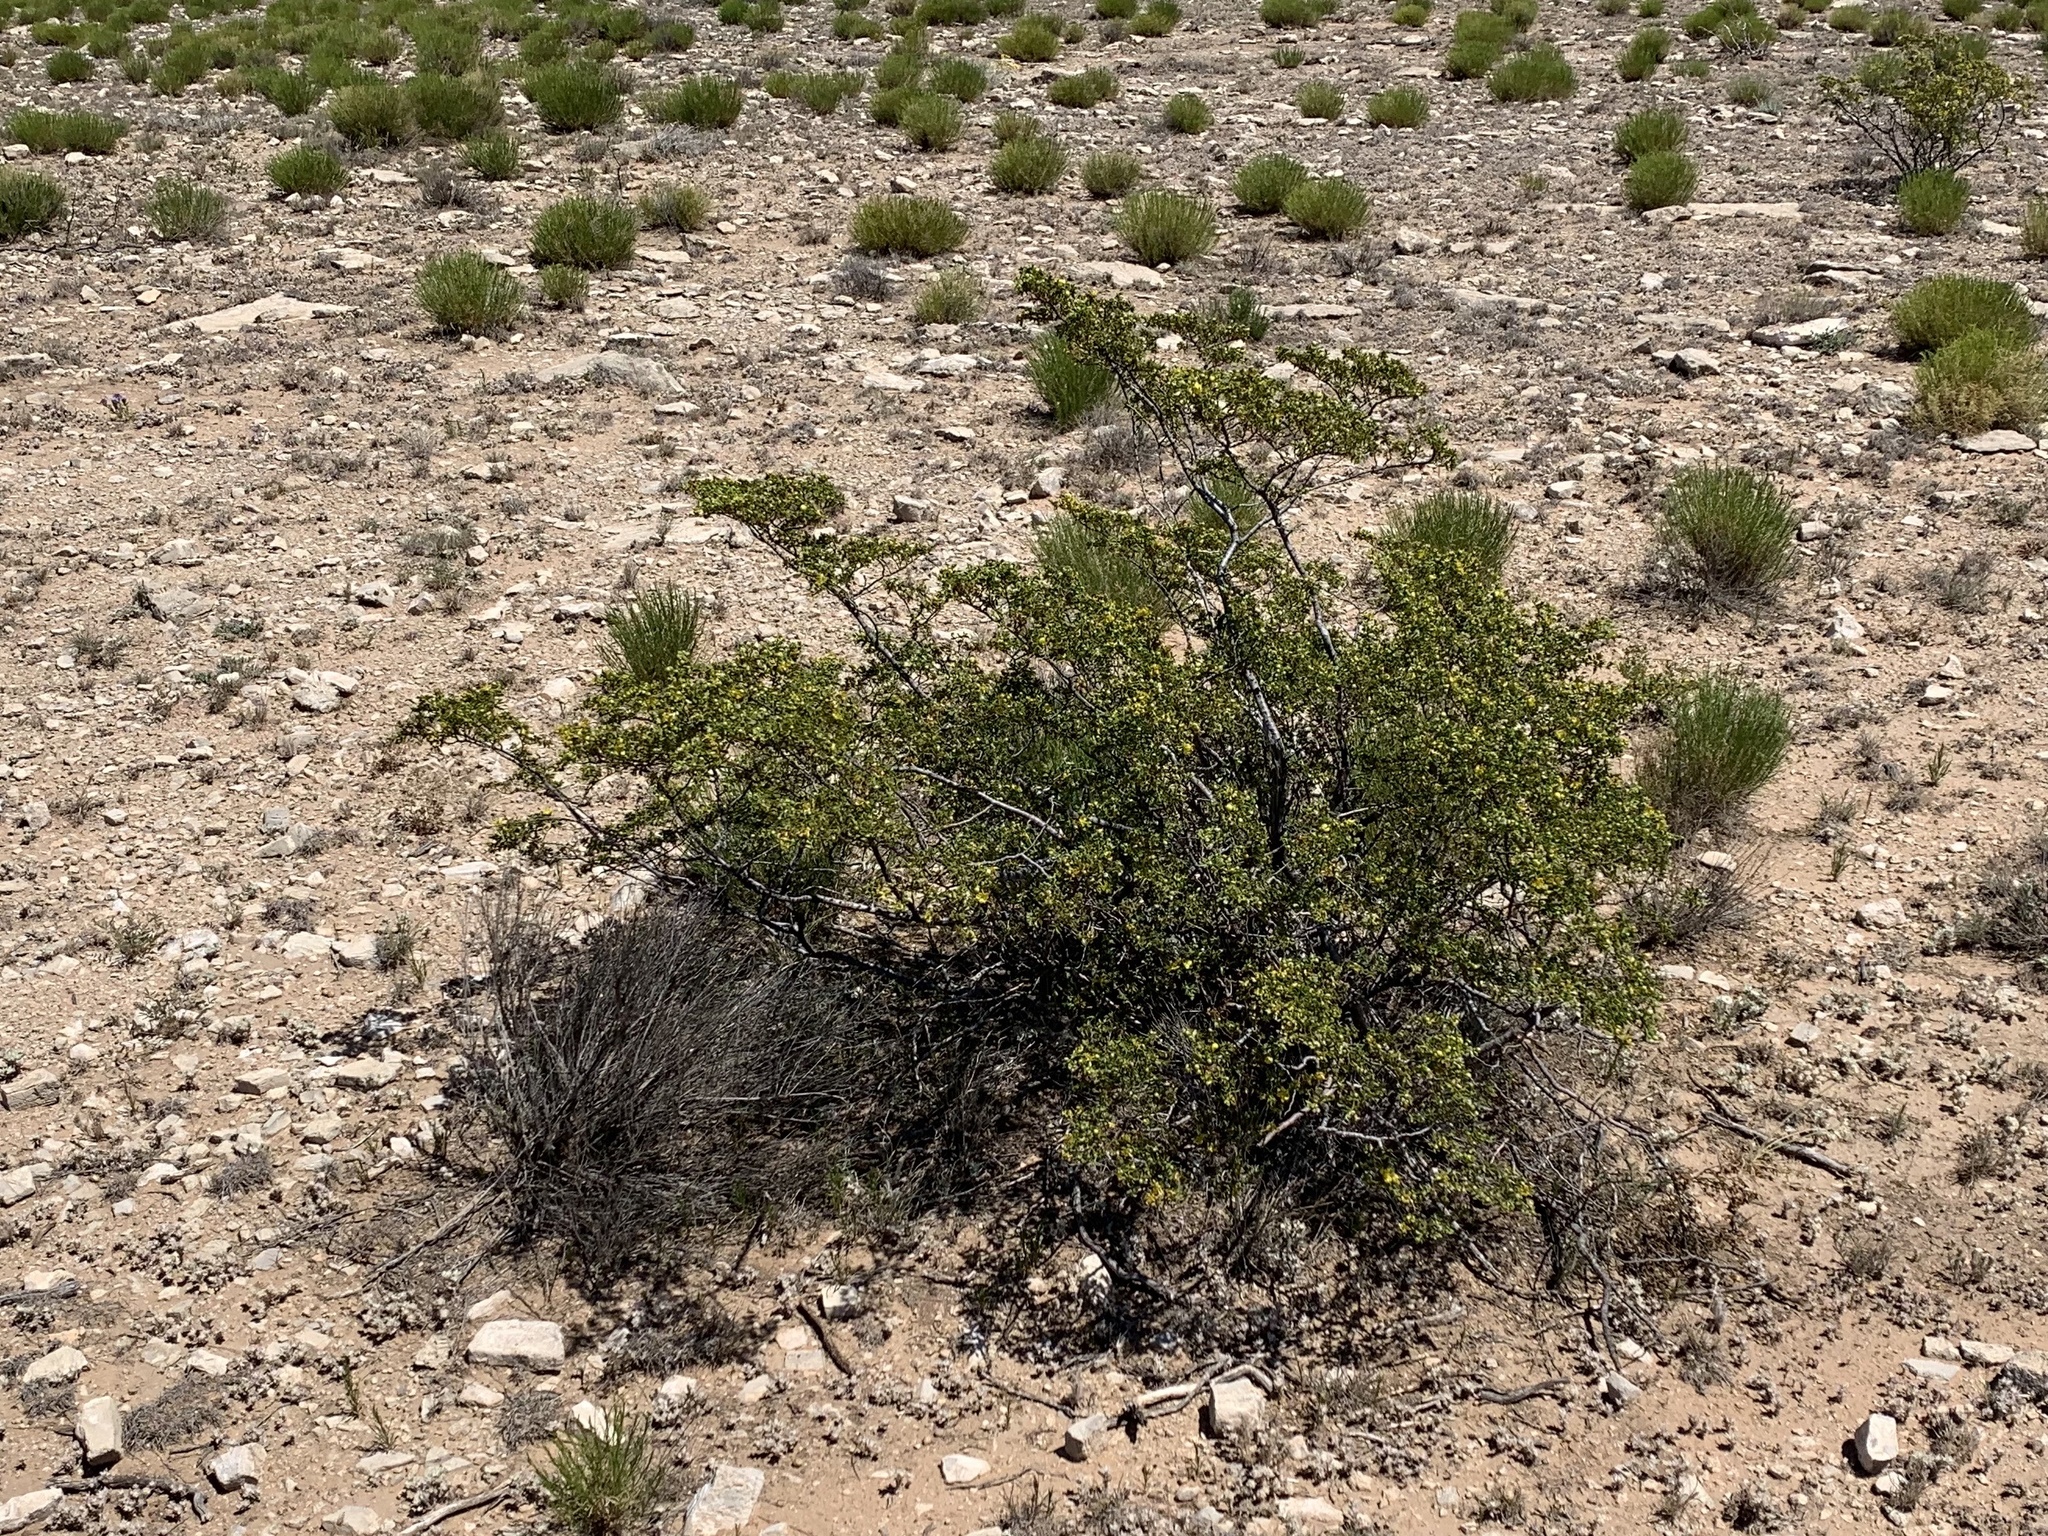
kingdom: Plantae
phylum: Tracheophyta
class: Magnoliopsida
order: Zygophyllales
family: Zygophyllaceae
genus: Larrea
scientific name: Larrea tridentata
